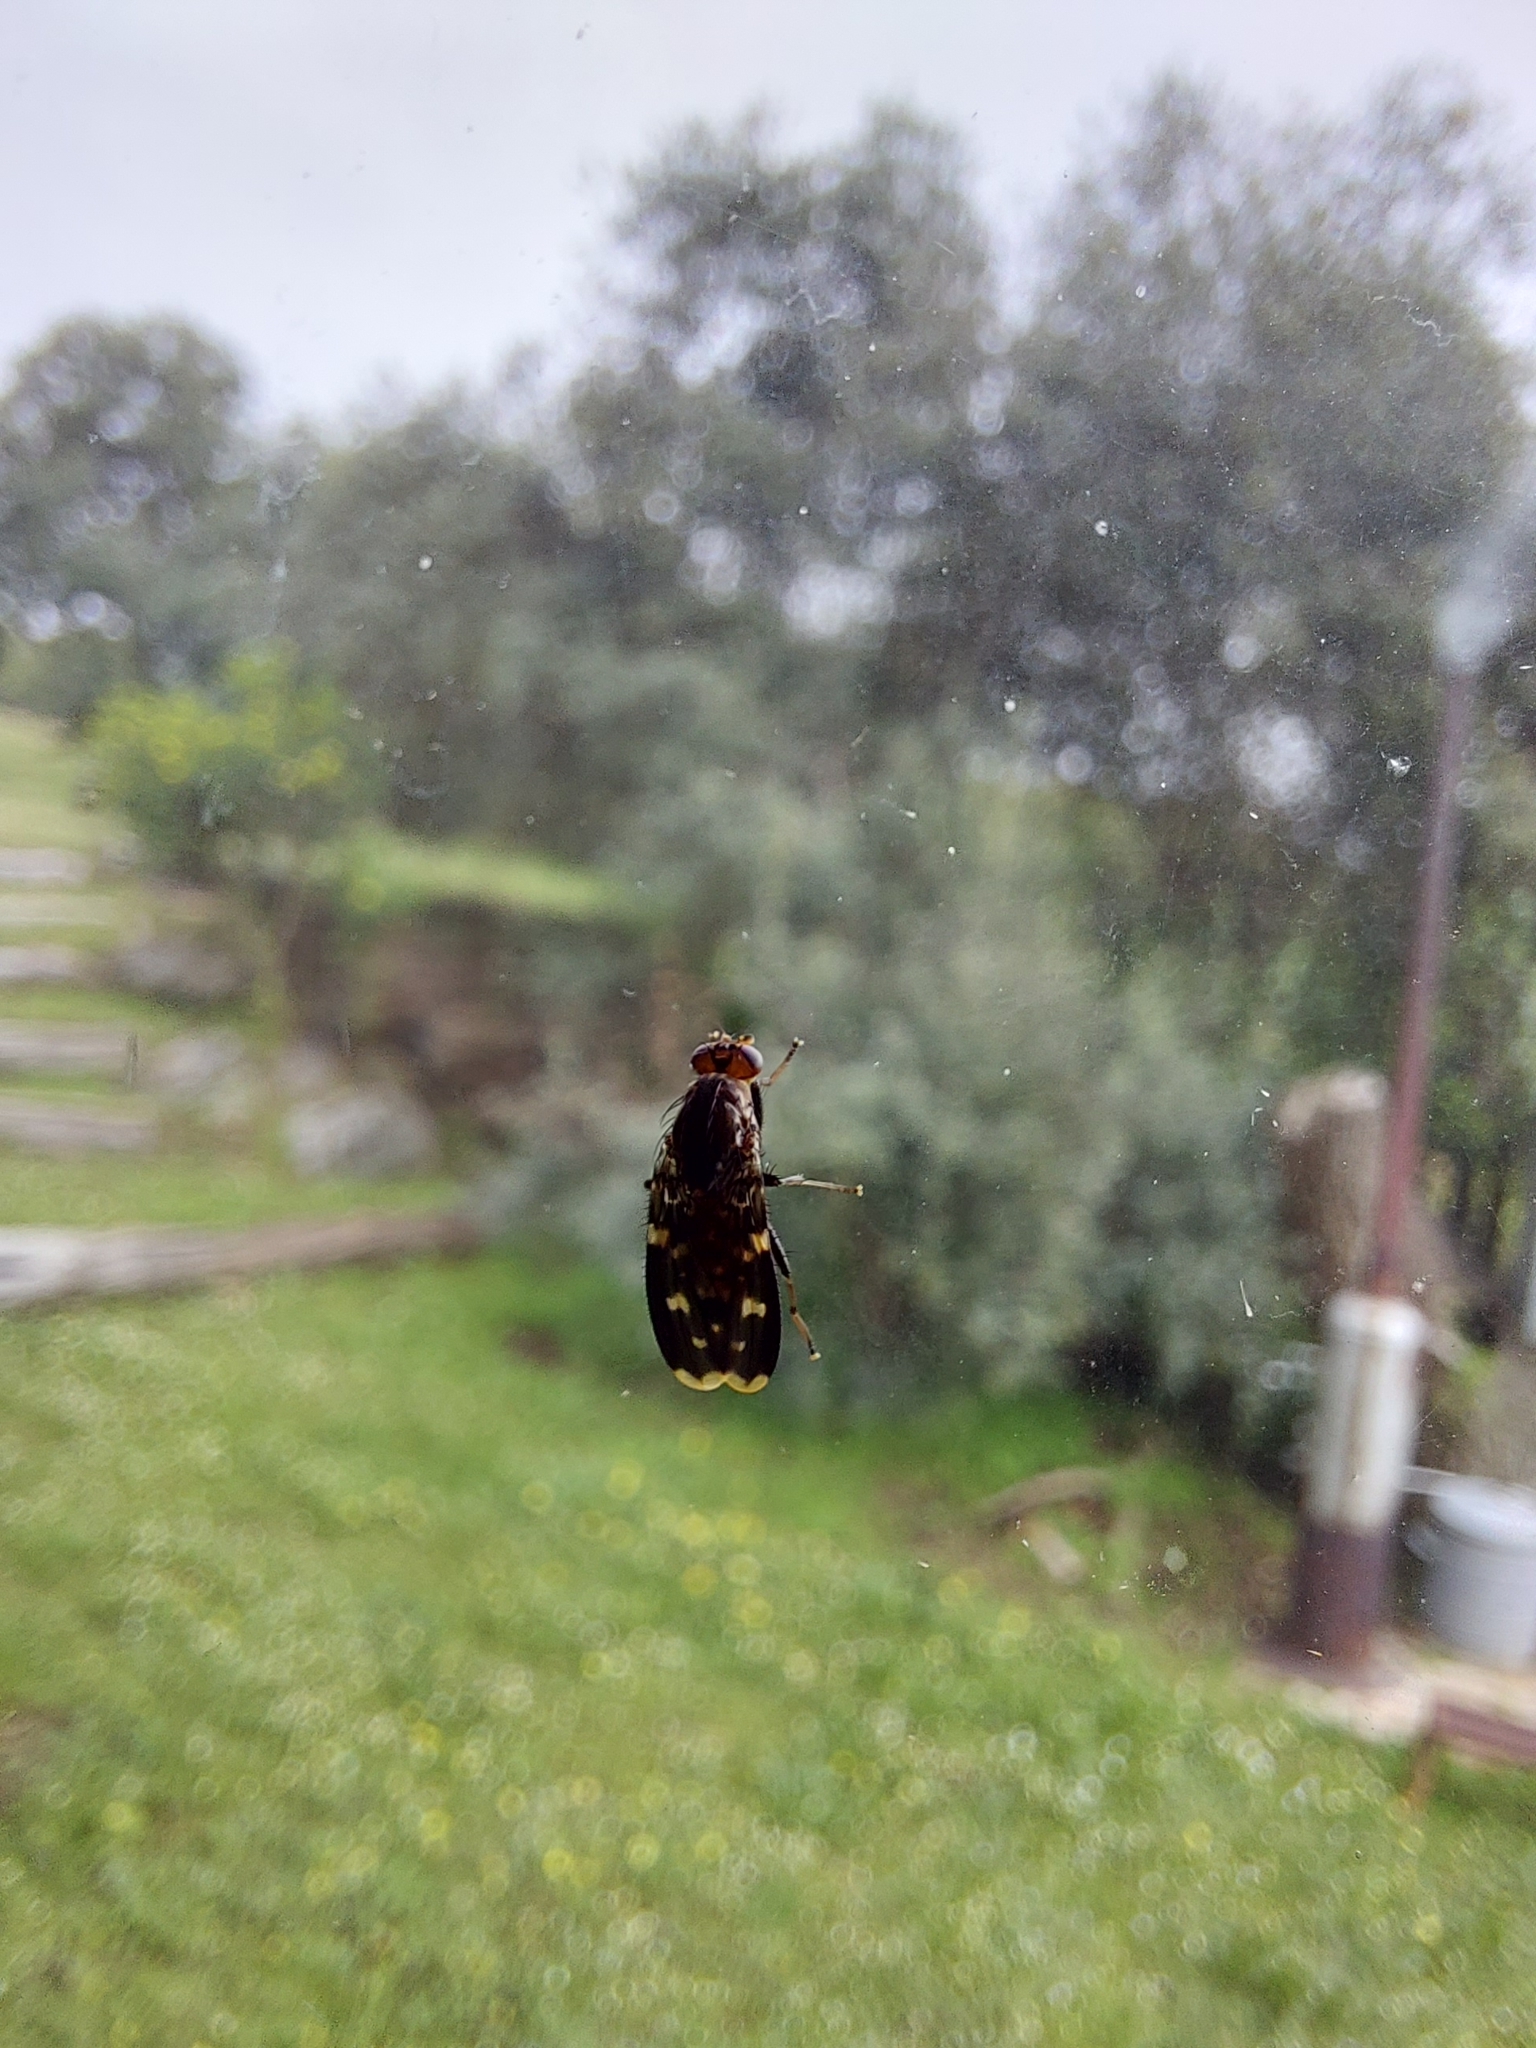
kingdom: Animalia
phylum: Arthropoda
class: Insecta
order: Diptera
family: Heleomyzidae
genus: Suillia
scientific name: Suillia picta
